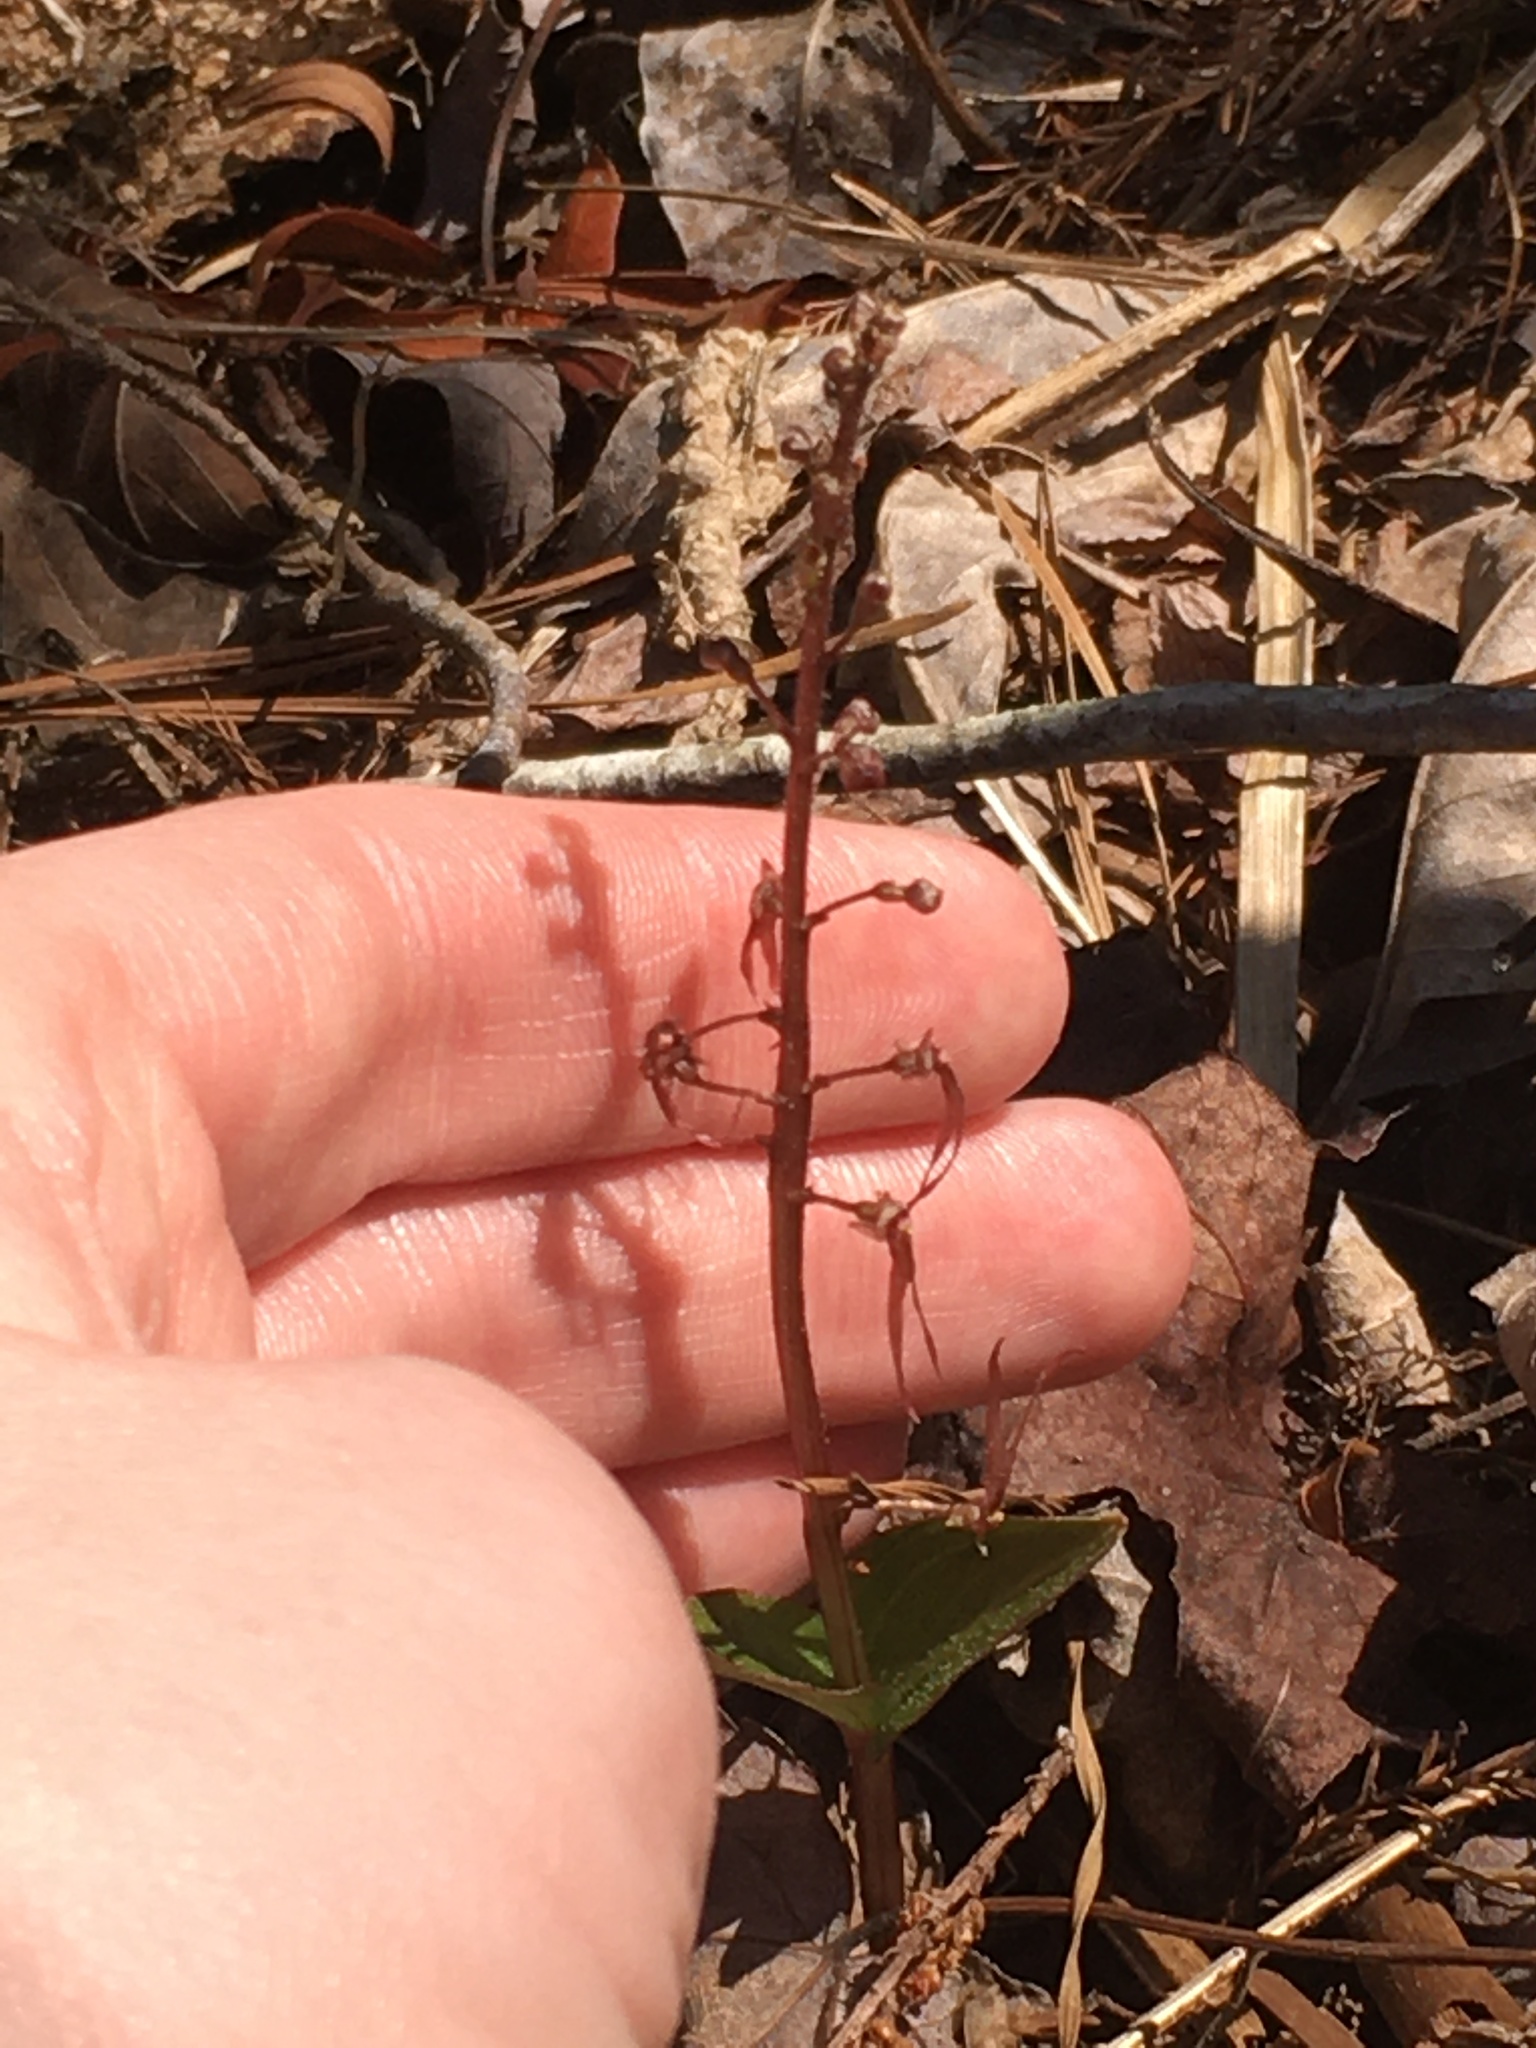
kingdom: Plantae
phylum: Tracheophyta
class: Liliopsida
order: Asparagales
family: Orchidaceae
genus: Neottia
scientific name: Neottia bifolia
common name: Southern twayblade
